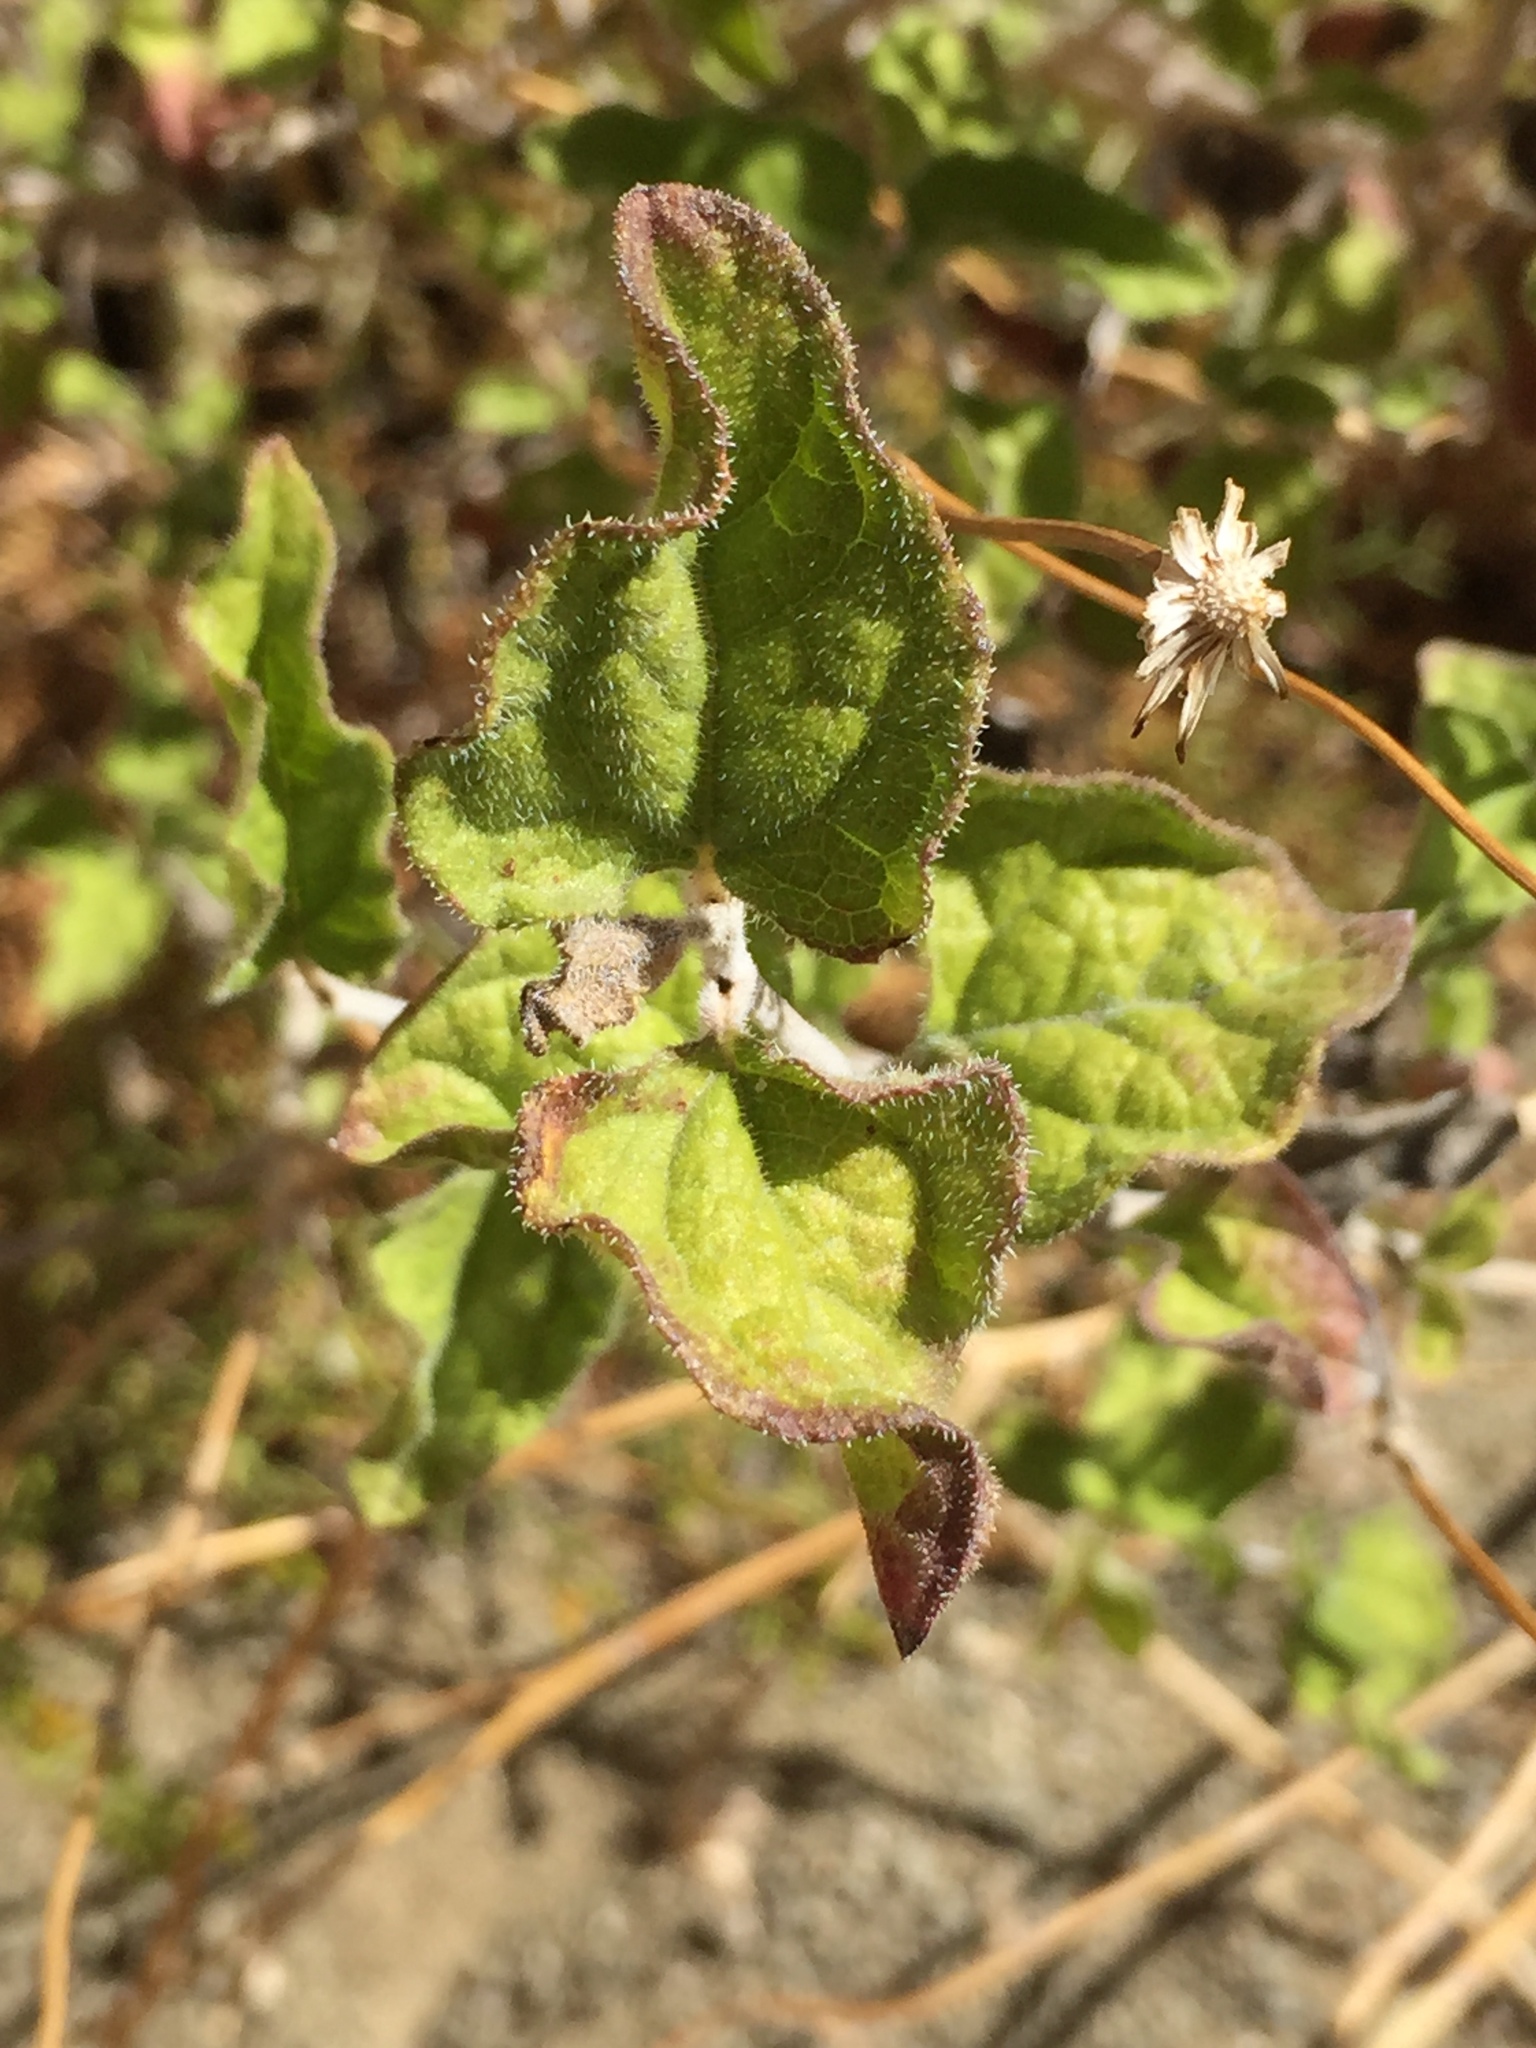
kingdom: Plantae
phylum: Tracheophyta
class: Magnoliopsida
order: Asterales
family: Asteraceae
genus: Bahiopsis
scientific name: Bahiopsis parishii
